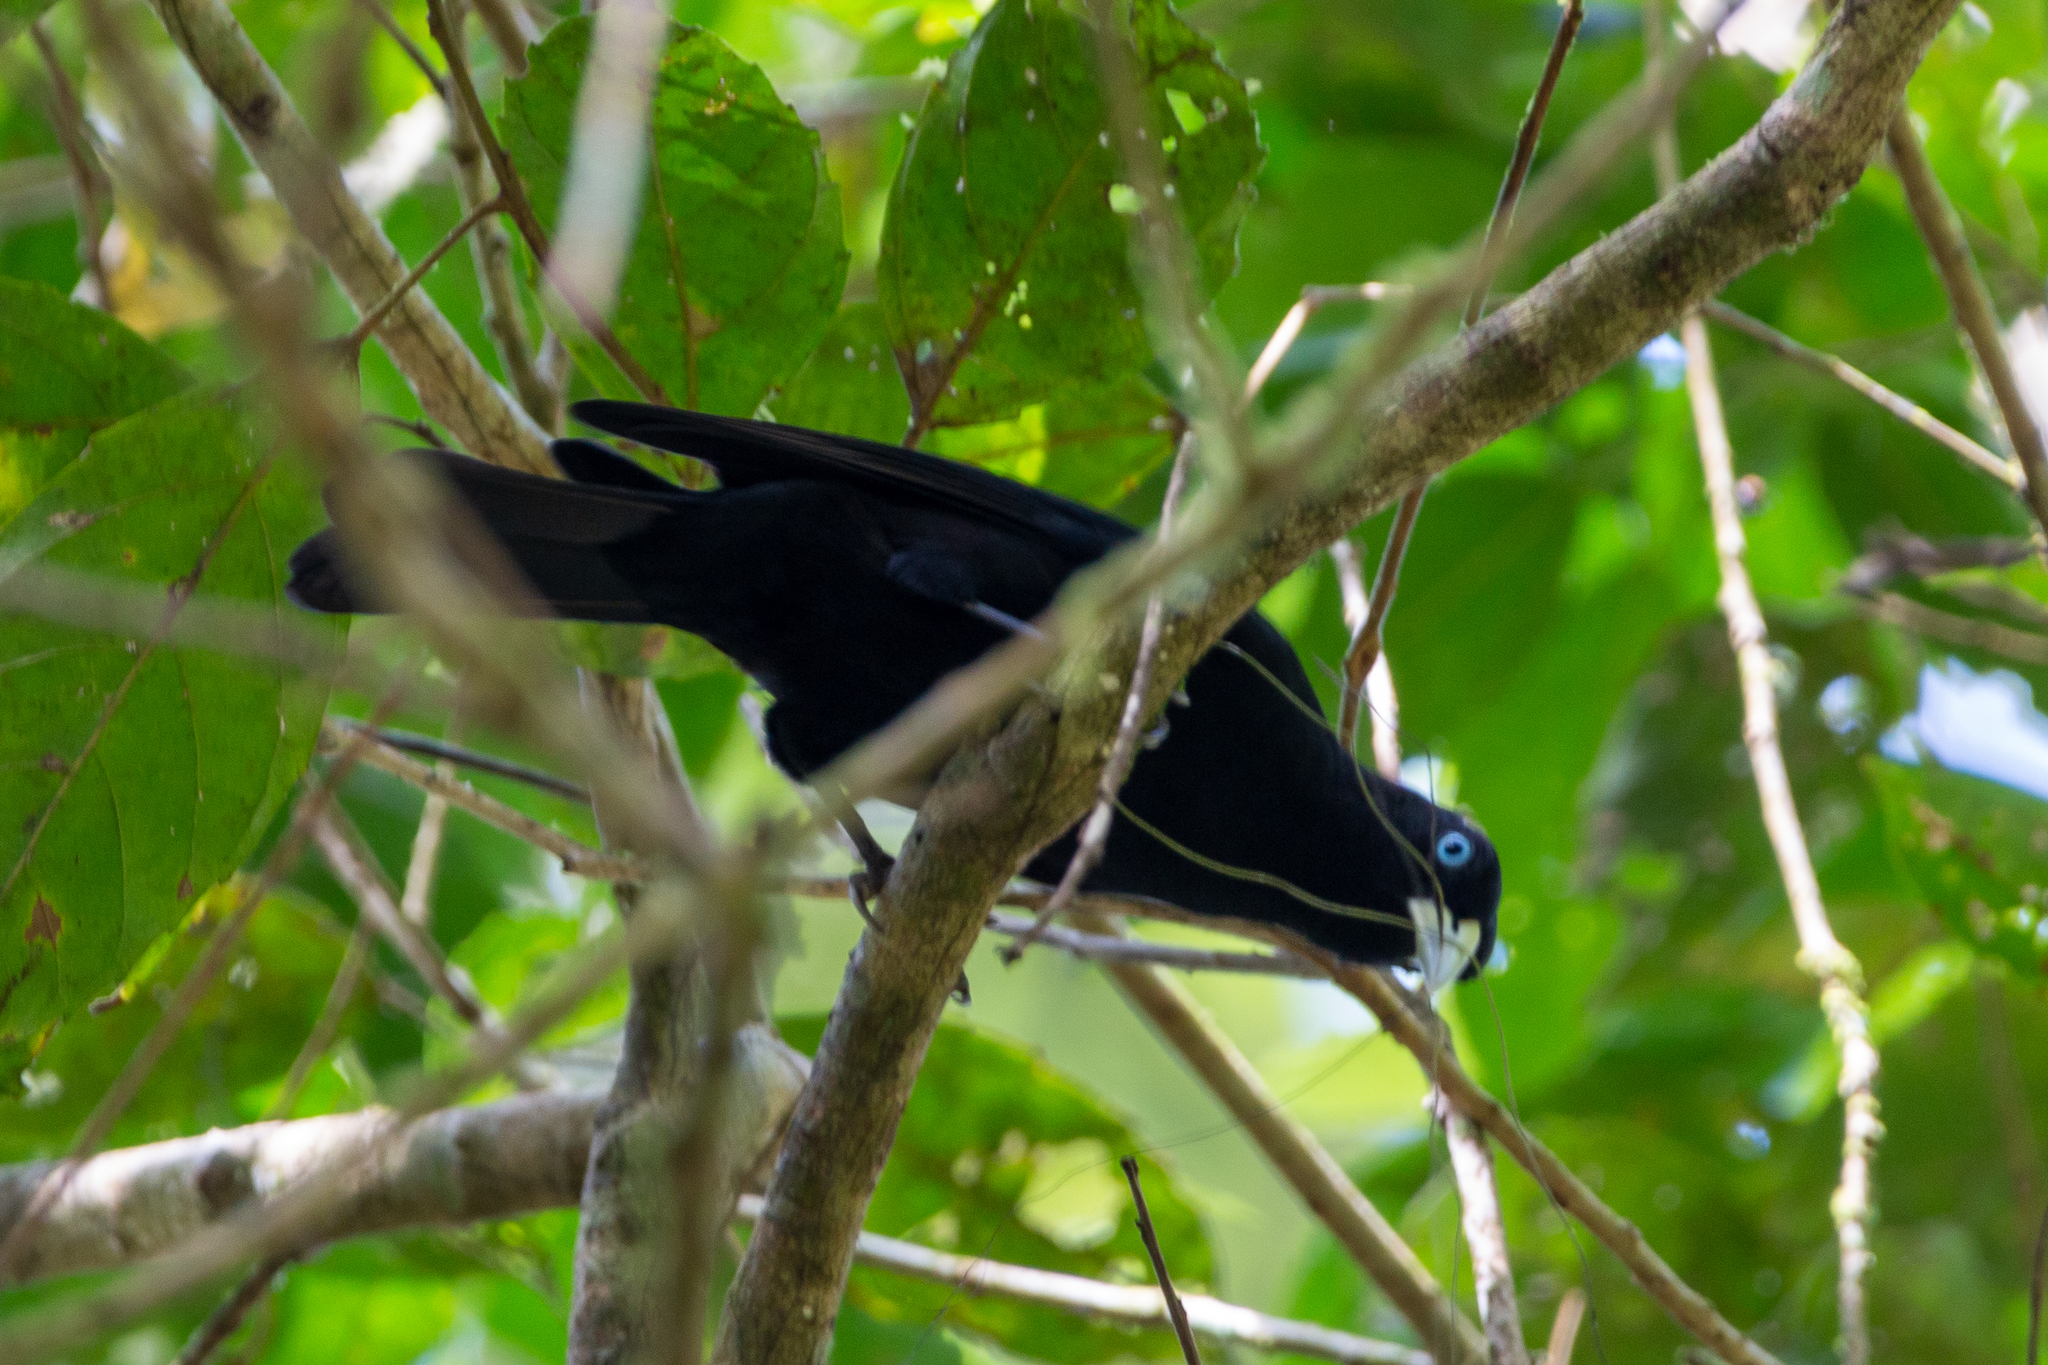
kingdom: Animalia
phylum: Chordata
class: Aves
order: Passeriformes
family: Icteridae
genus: Cacicus
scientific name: Cacicus uropygialis
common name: Scarlet-rumped cacique
